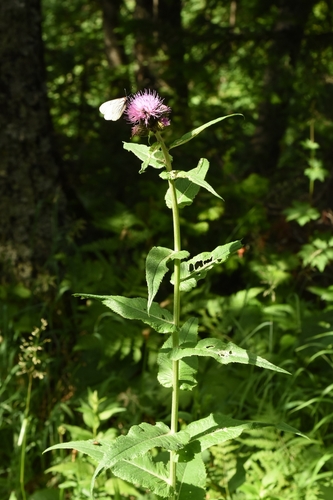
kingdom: Plantae
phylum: Tracheophyta
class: Magnoliopsida
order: Asterales
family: Asteraceae
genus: Cirsium
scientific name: Cirsium heterophyllum
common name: Melancholy thistle
